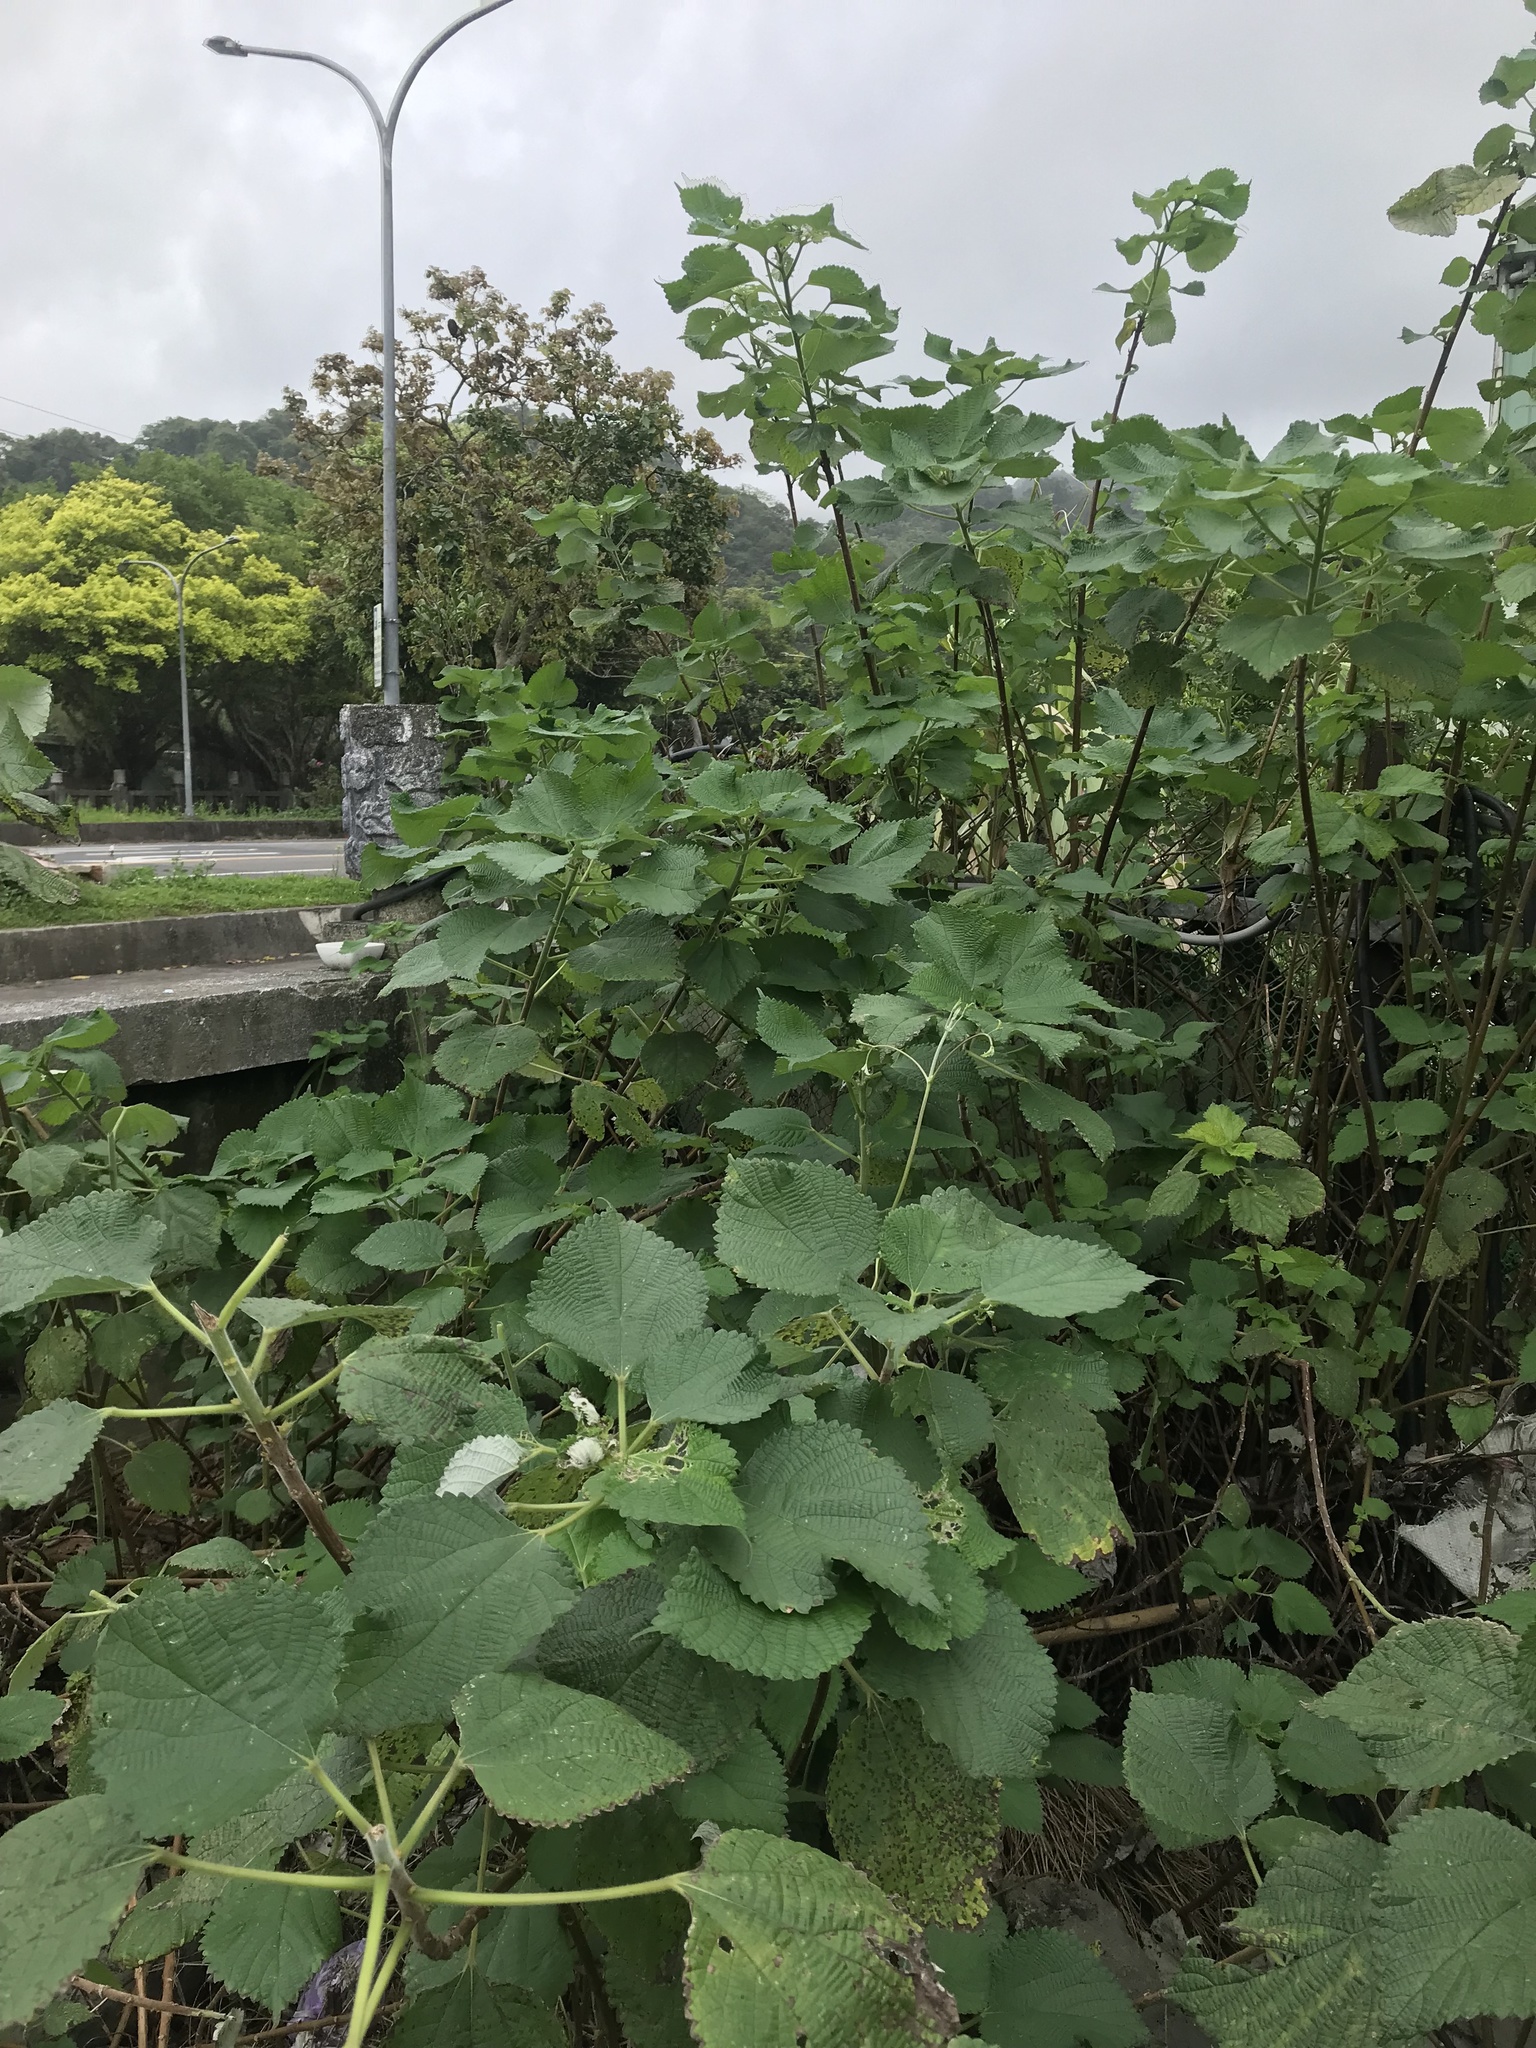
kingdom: Plantae
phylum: Tracheophyta
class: Magnoliopsida
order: Rosales
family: Urticaceae
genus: Boehmeria
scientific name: Boehmeria nivea
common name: Ramie chinese grass
